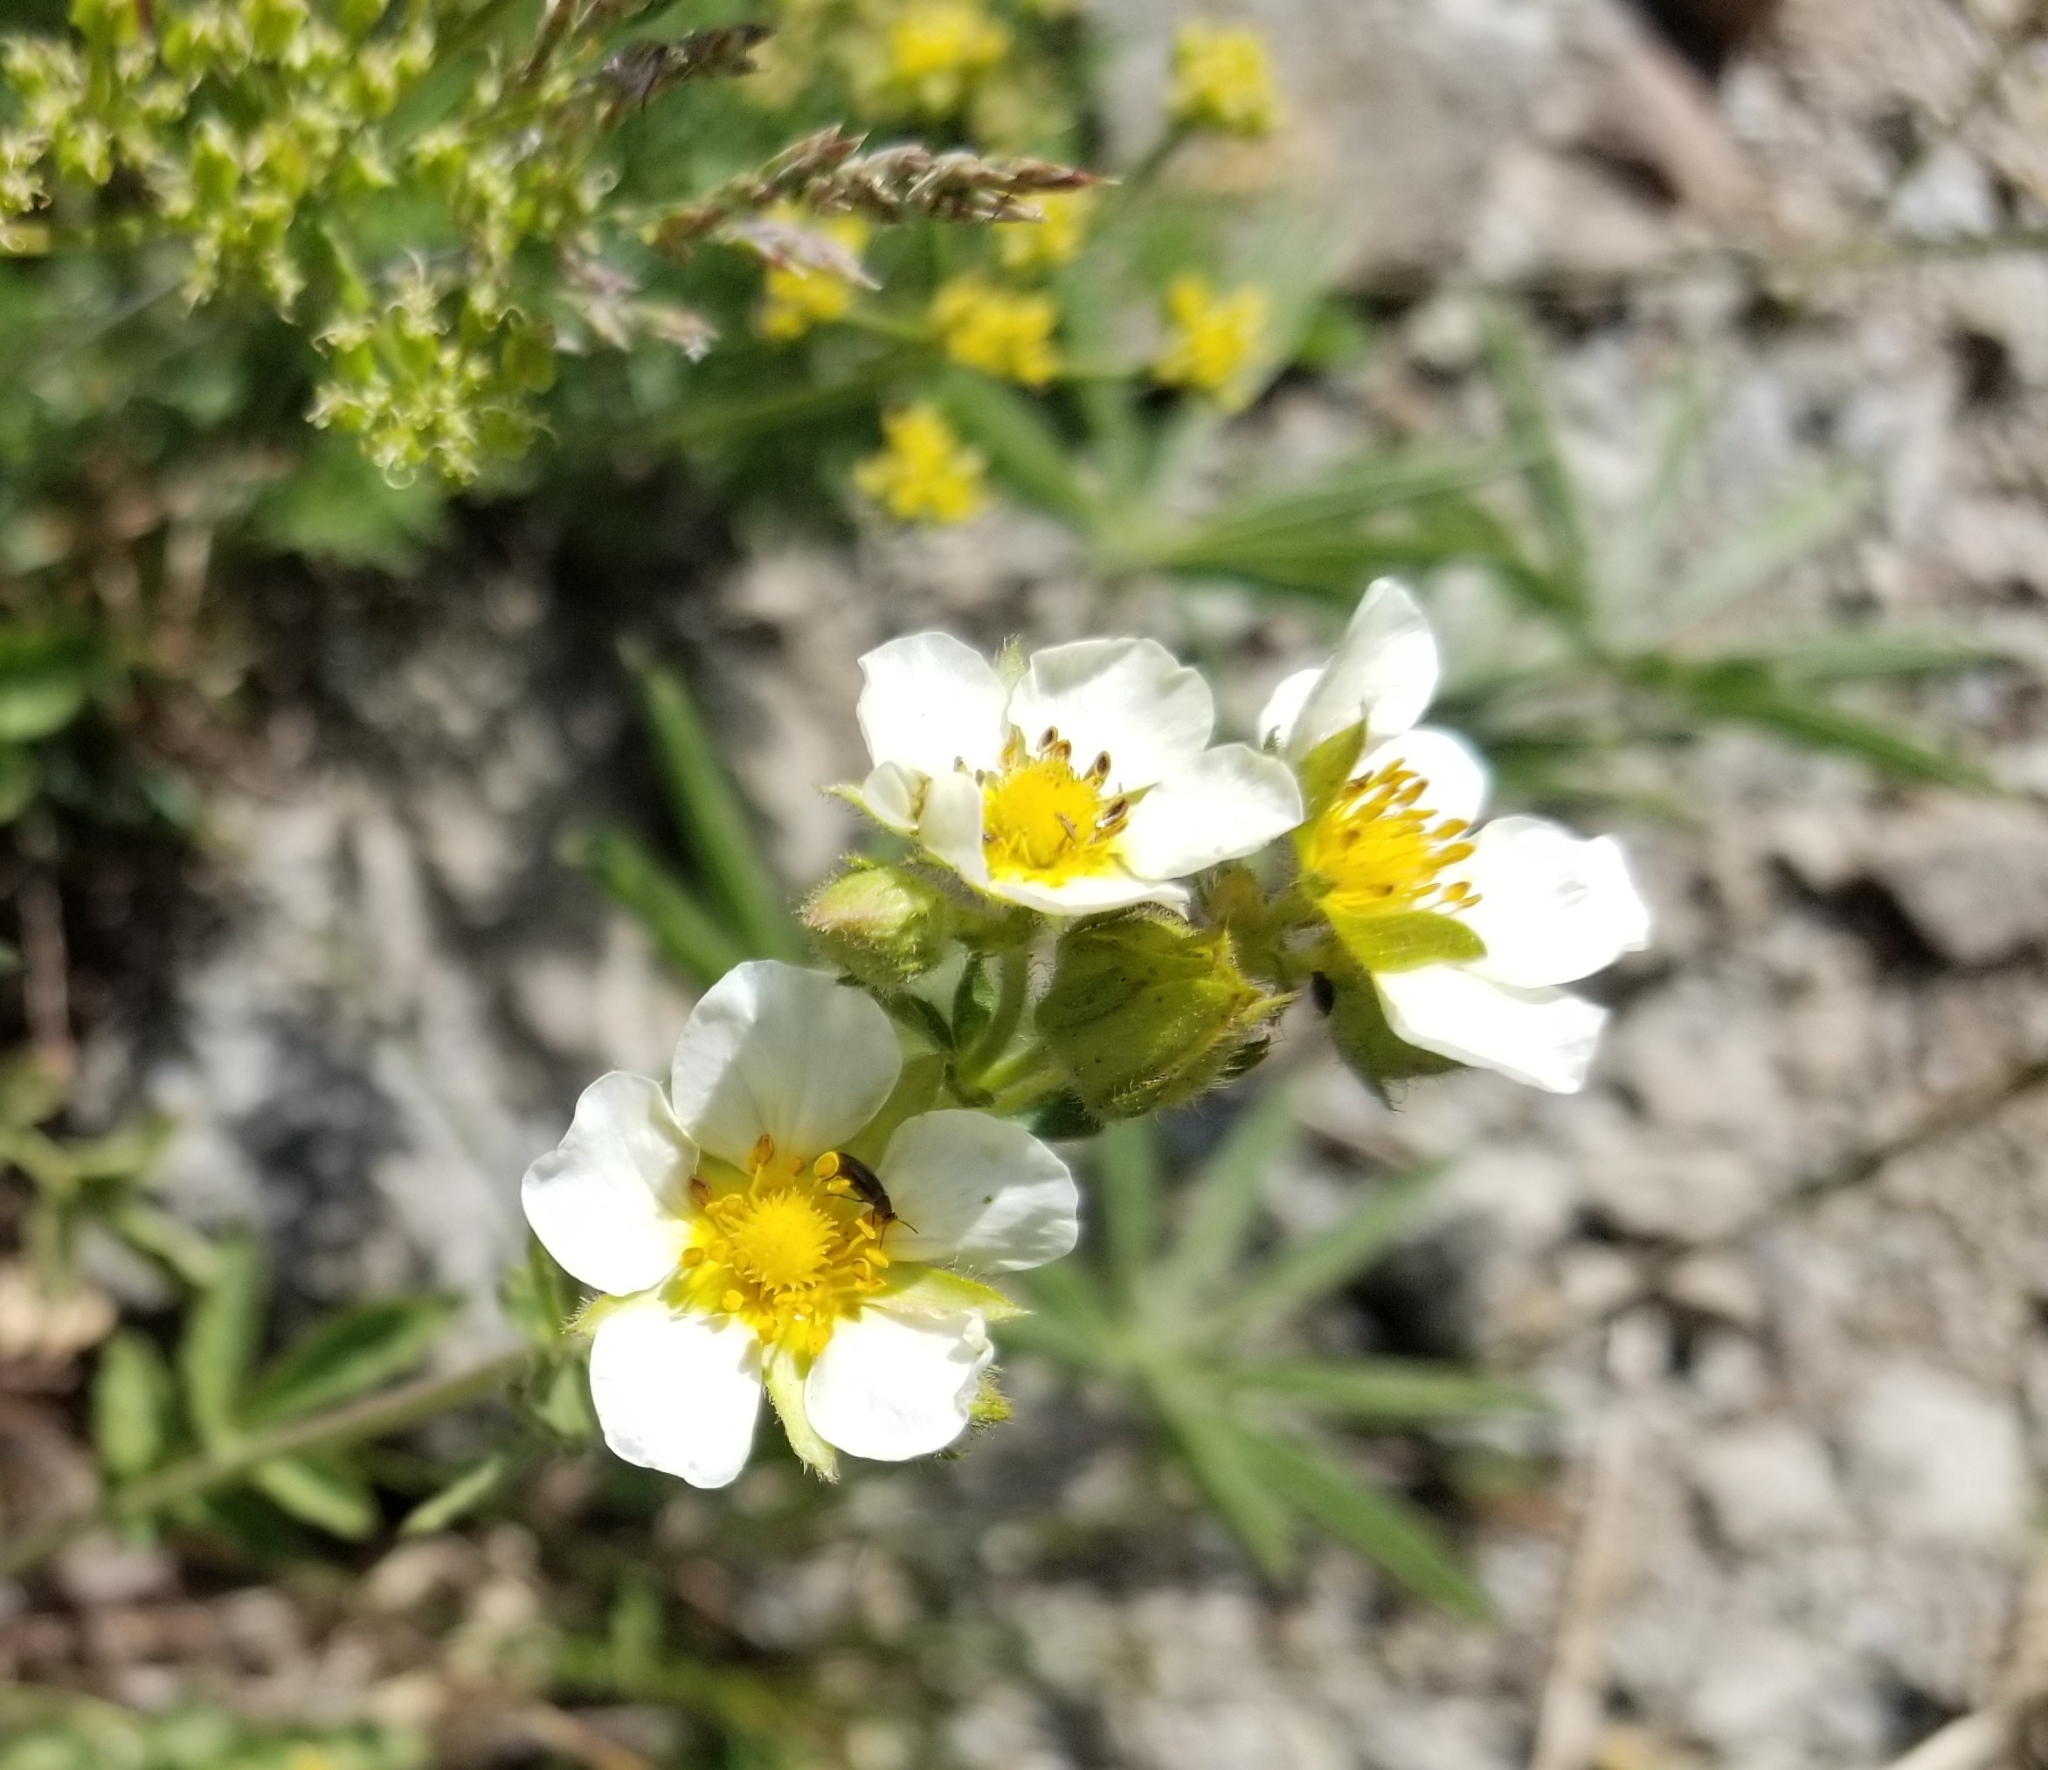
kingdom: Plantae
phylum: Tracheophyta
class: Magnoliopsida
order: Rosales
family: Rosaceae
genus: Drymocallis
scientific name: Drymocallis glandulosa
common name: Sticky cinquefoil
